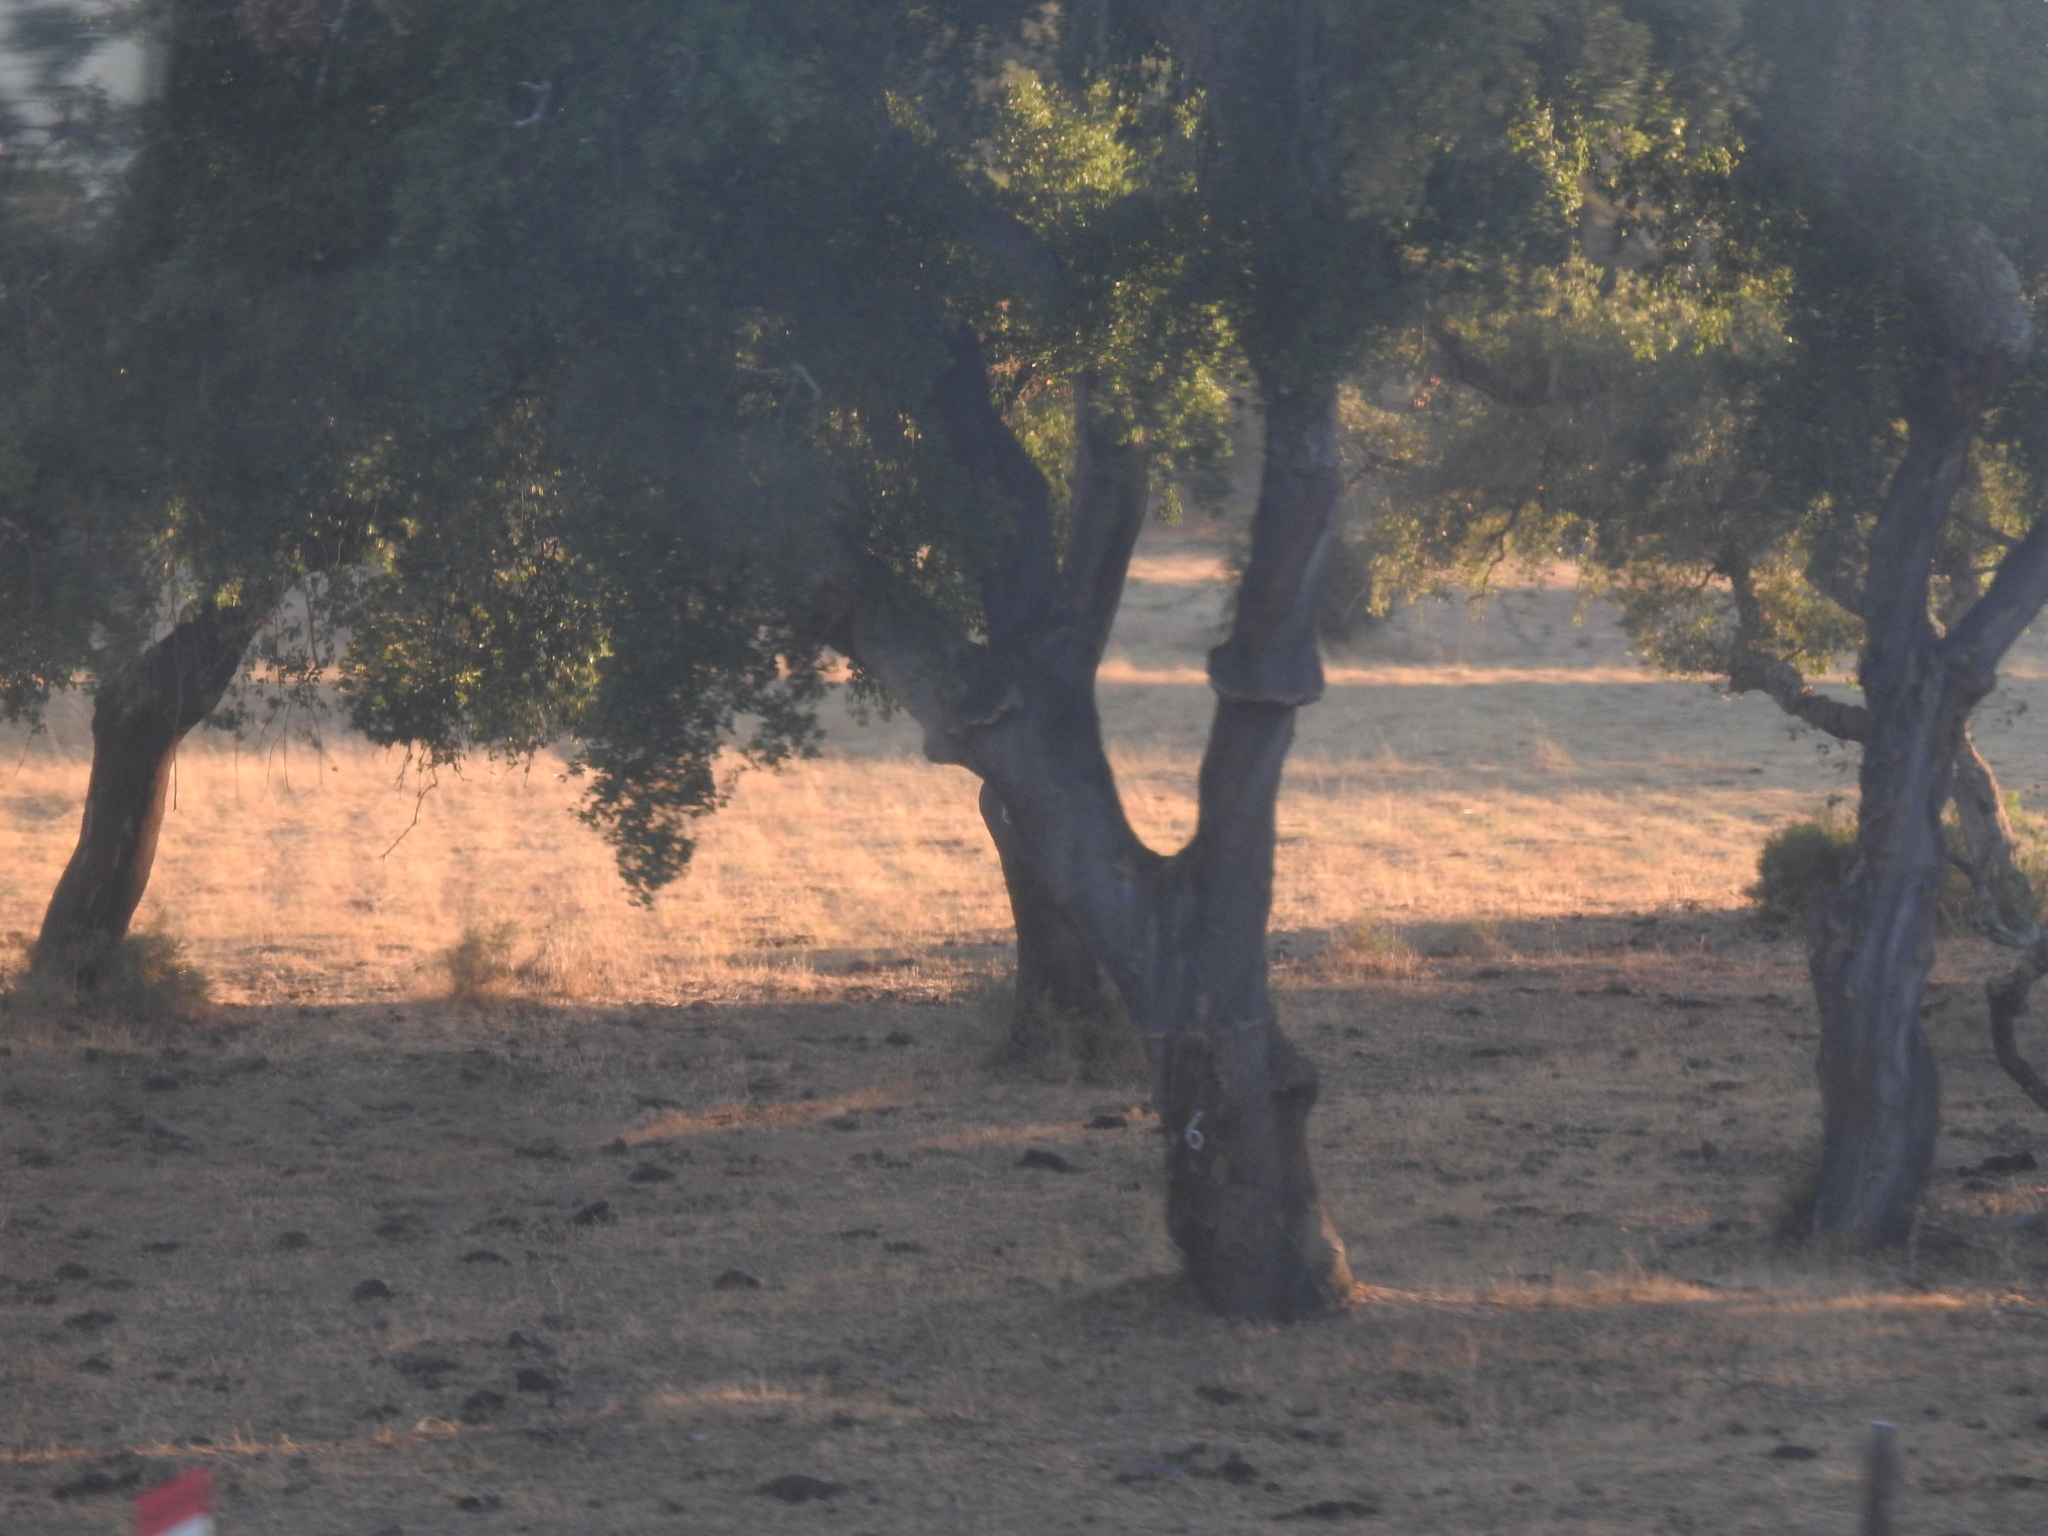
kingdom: Plantae
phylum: Tracheophyta
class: Magnoliopsida
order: Fagales
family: Fagaceae
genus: Quercus
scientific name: Quercus suber
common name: Cork oak
